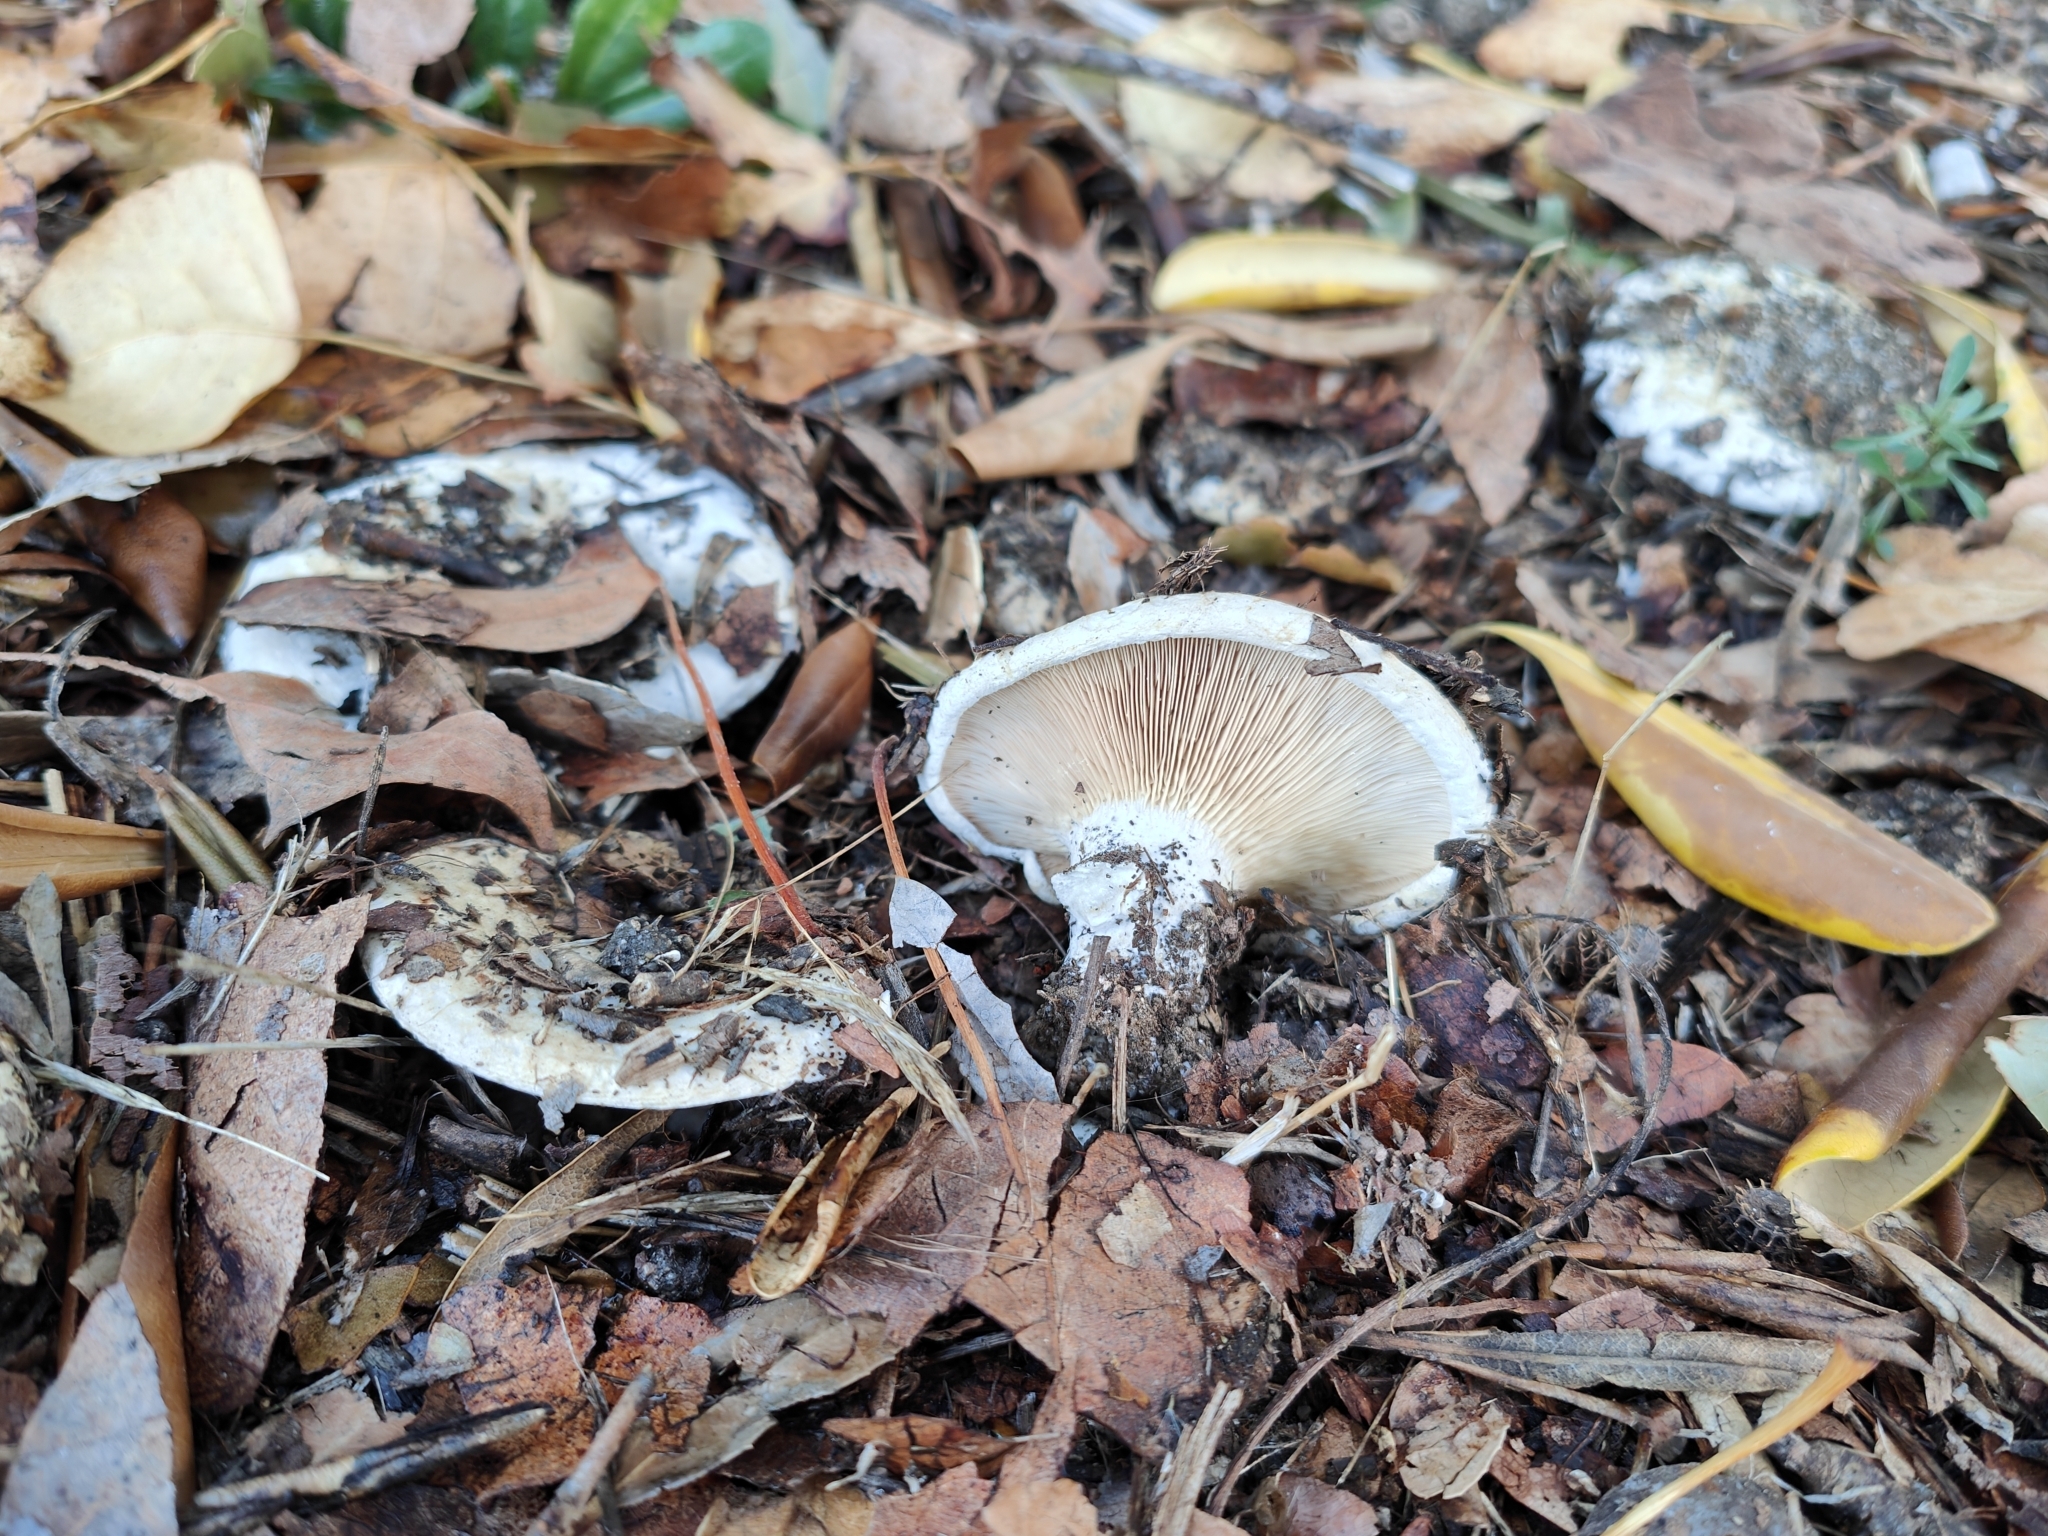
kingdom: Fungi
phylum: Basidiomycota
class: Agaricomycetes
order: Russulales
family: Russulaceae
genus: Lactarius
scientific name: Lactarius controversus
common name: Blushing milkcap
